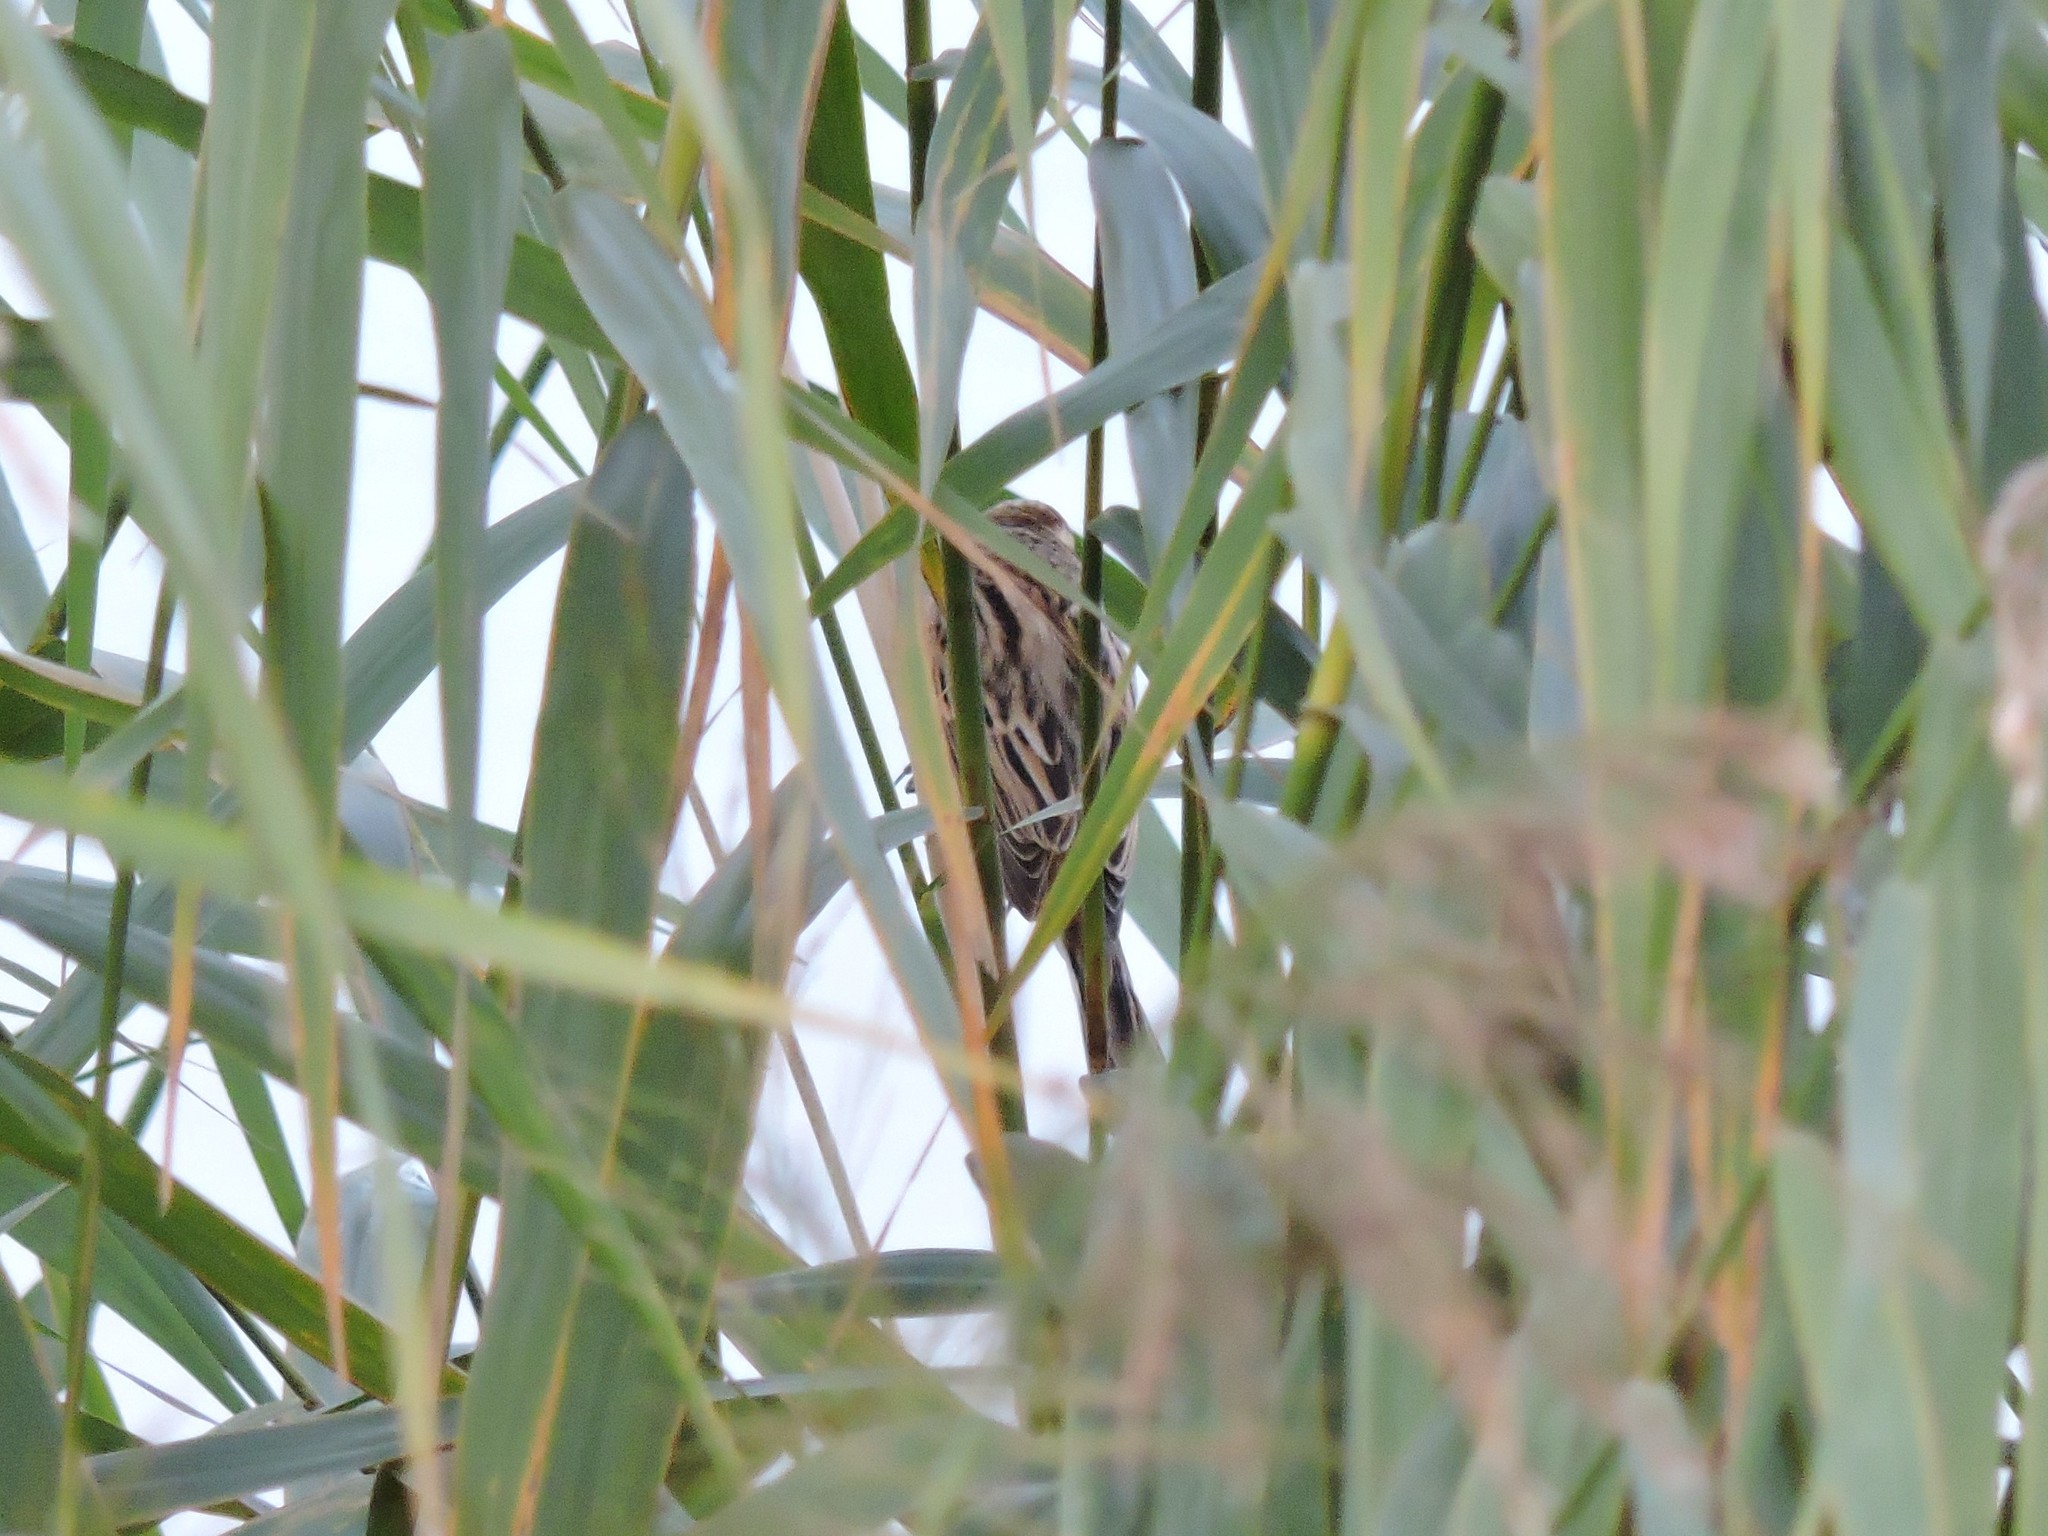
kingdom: Animalia
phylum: Chordata
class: Aves
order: Passeriformes
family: Emberizidae
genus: Emberiza
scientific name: Emberiza schoeniclus
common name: Reed bunting
